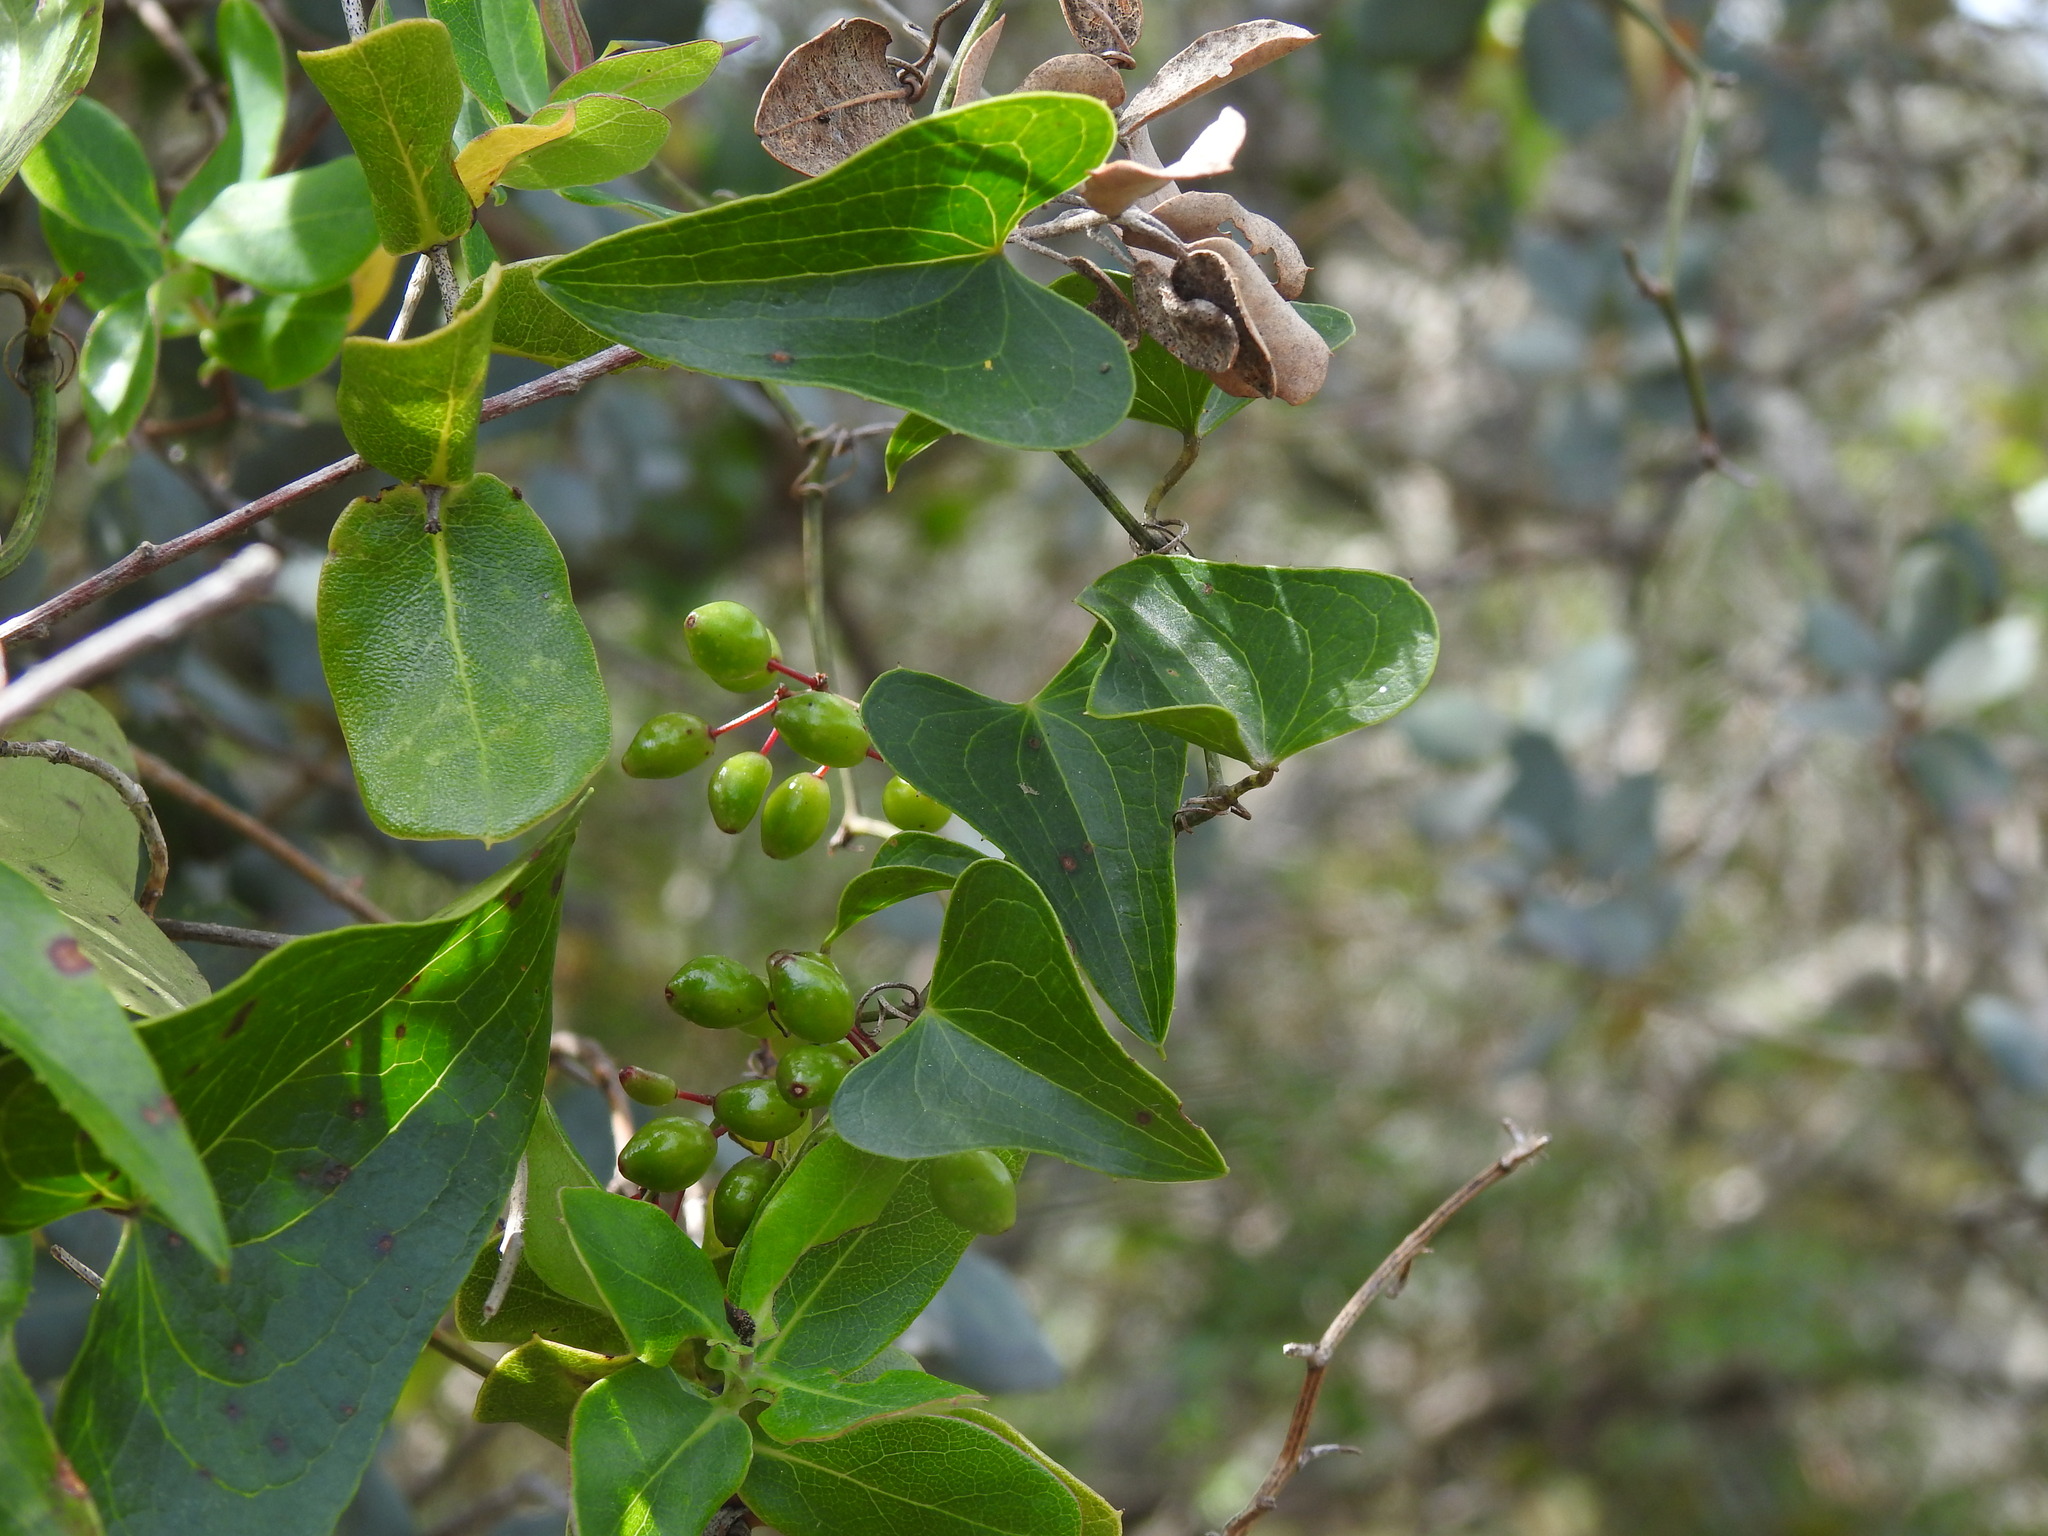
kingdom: Plantae
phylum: Tracheophyta
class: Liliopsida
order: Liliales
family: Smilacaceae
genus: Smilax
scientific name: Smilax aspera
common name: Common smilax
